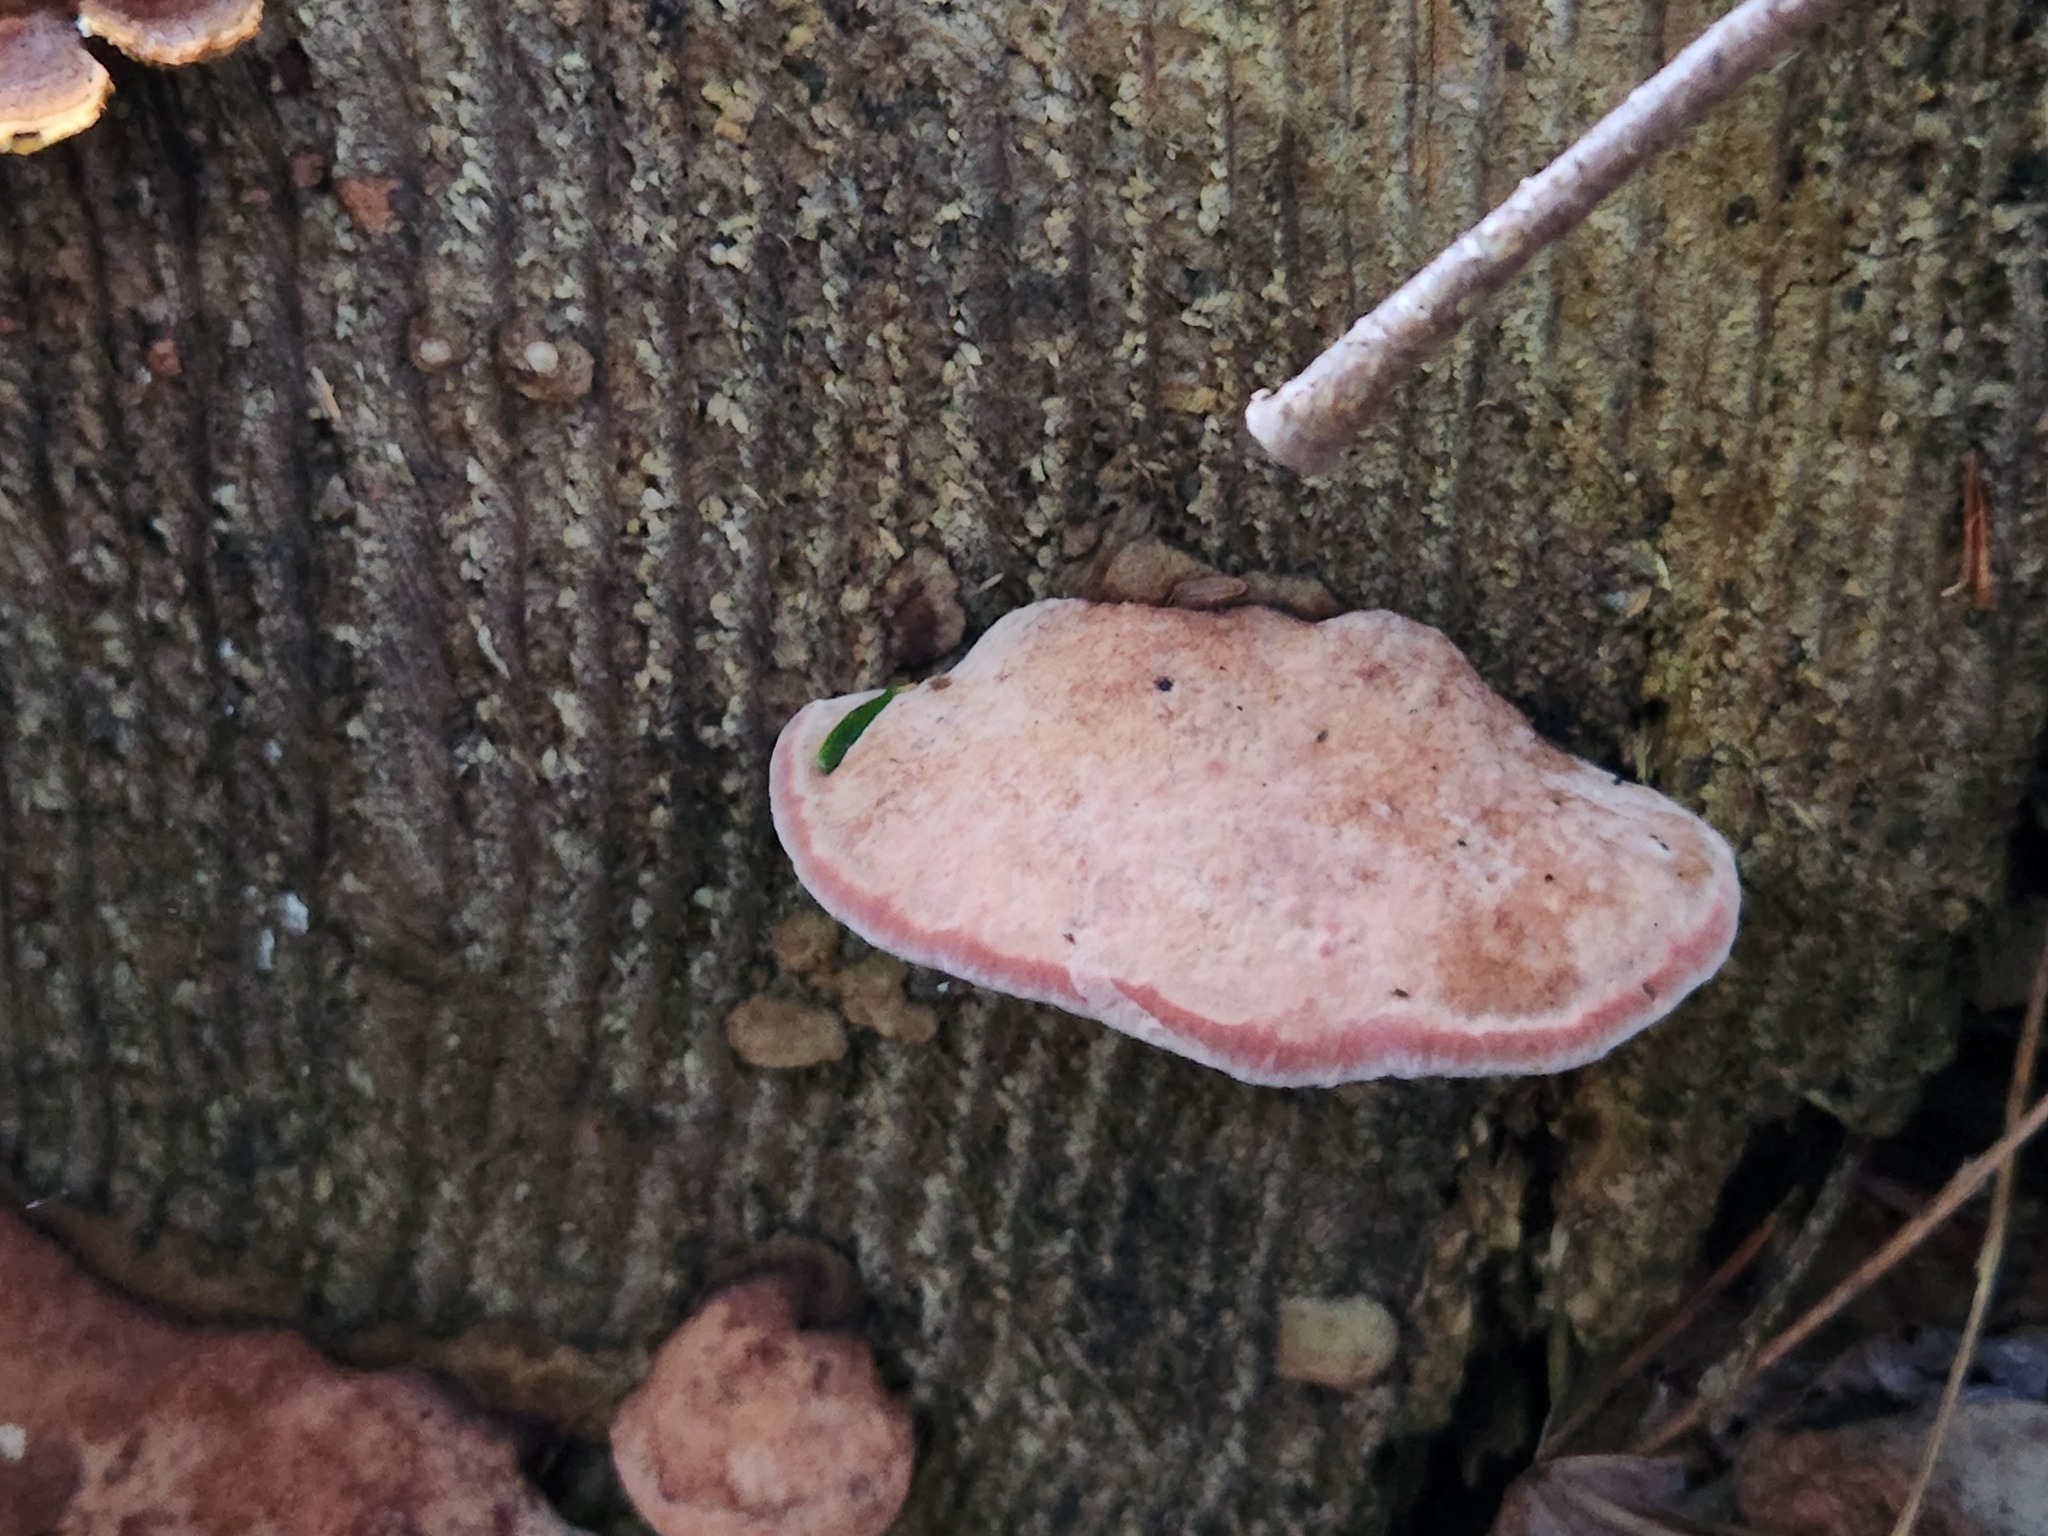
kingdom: Fungi
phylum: Basidiomycota
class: Agaricomycetes
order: Polyporales
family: Fomitopsidaceae
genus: Rhodofomes
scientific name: Rhodofomes cajanderi
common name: Rosy conk
